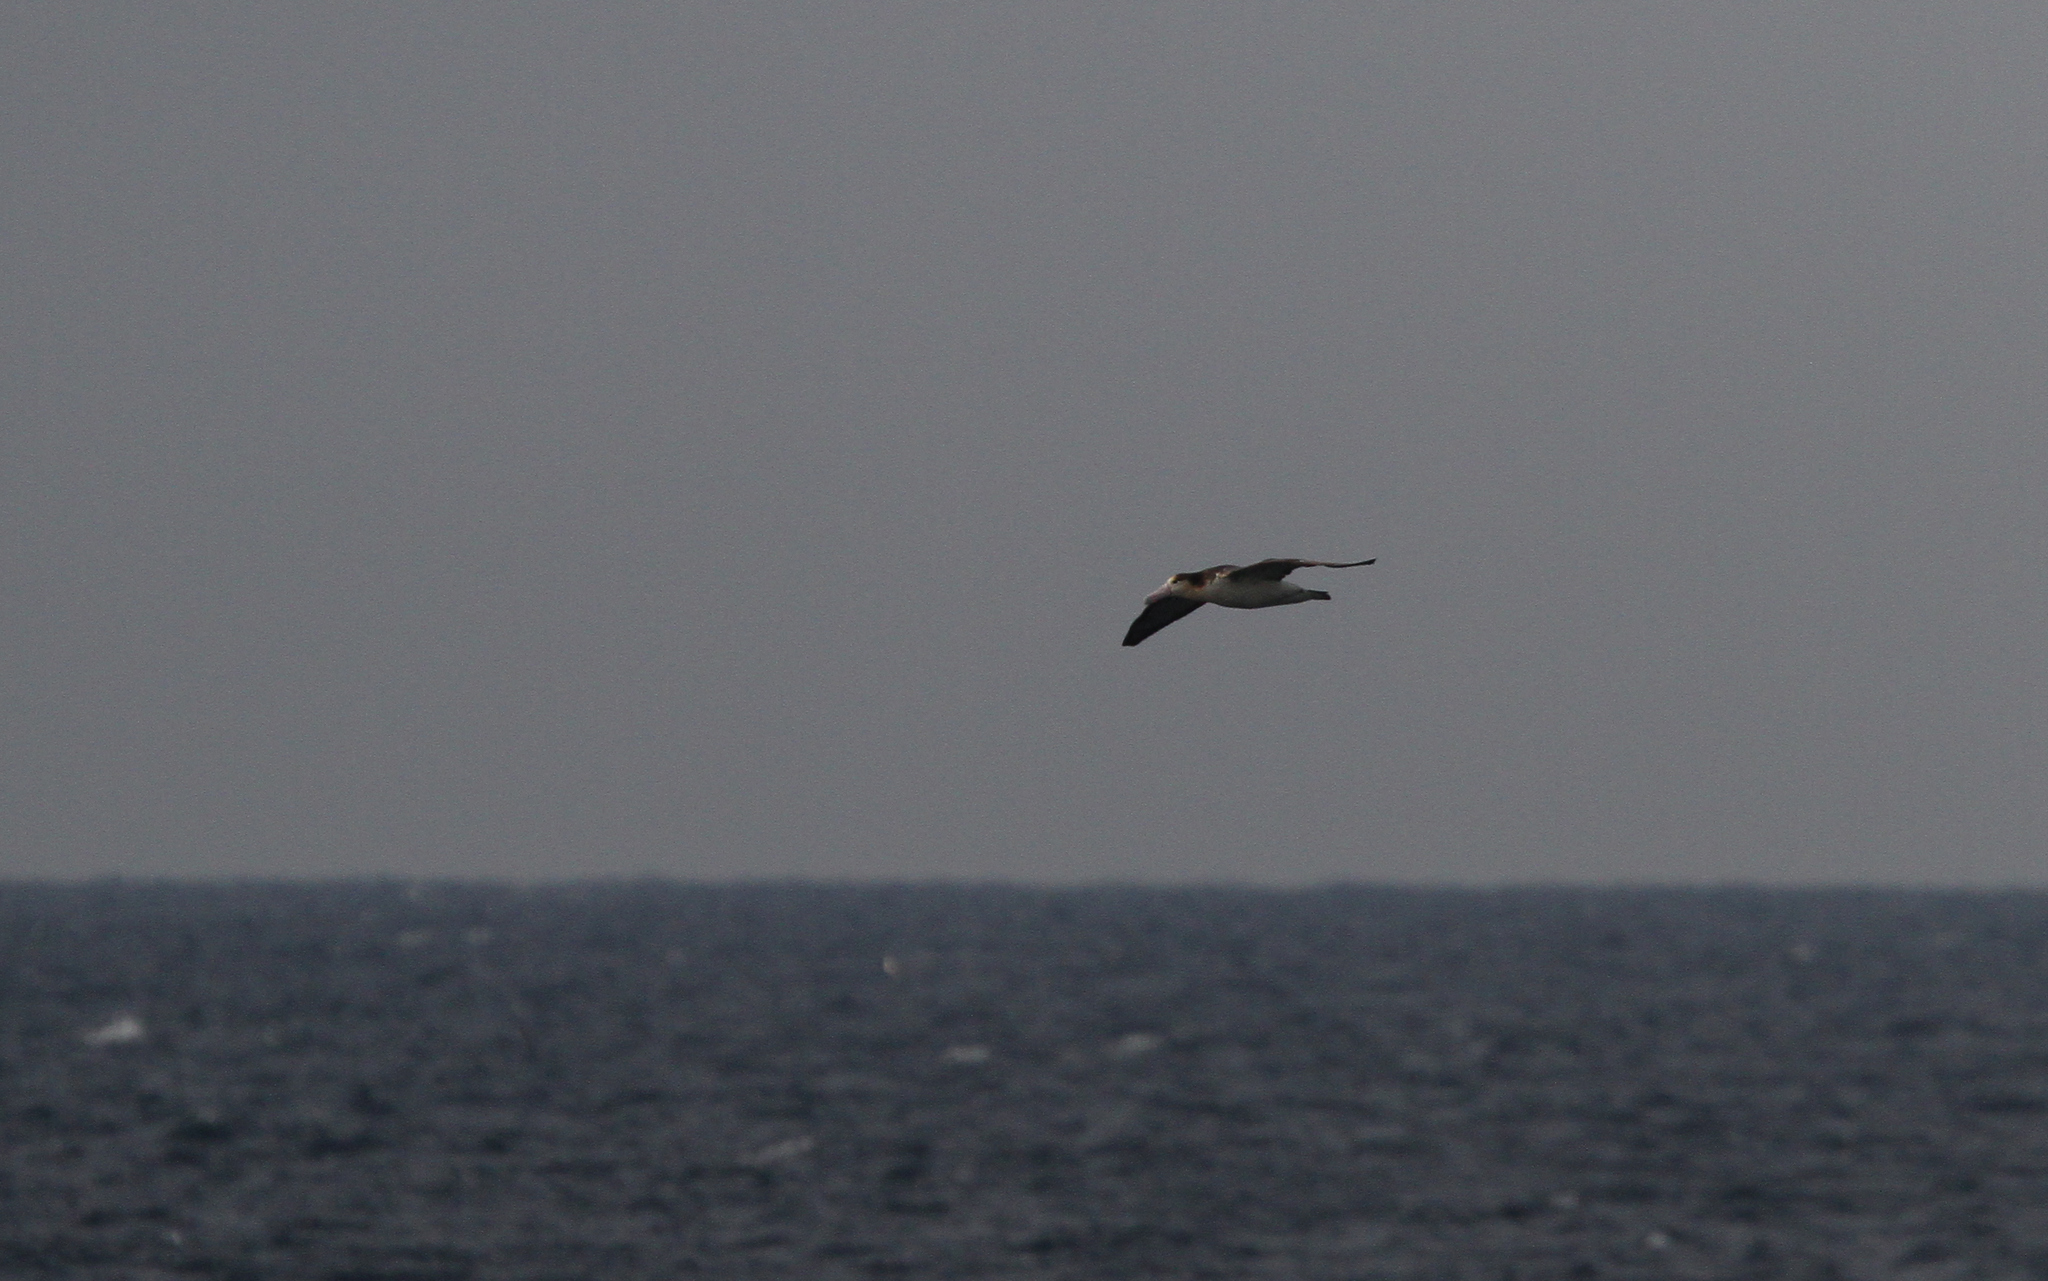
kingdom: Animalia
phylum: Chordata
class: Aves
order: Procellariiformes
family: Diomedeidae
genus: Phoebastria
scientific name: Phoebastria albatrus
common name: Short-tailed albatross
